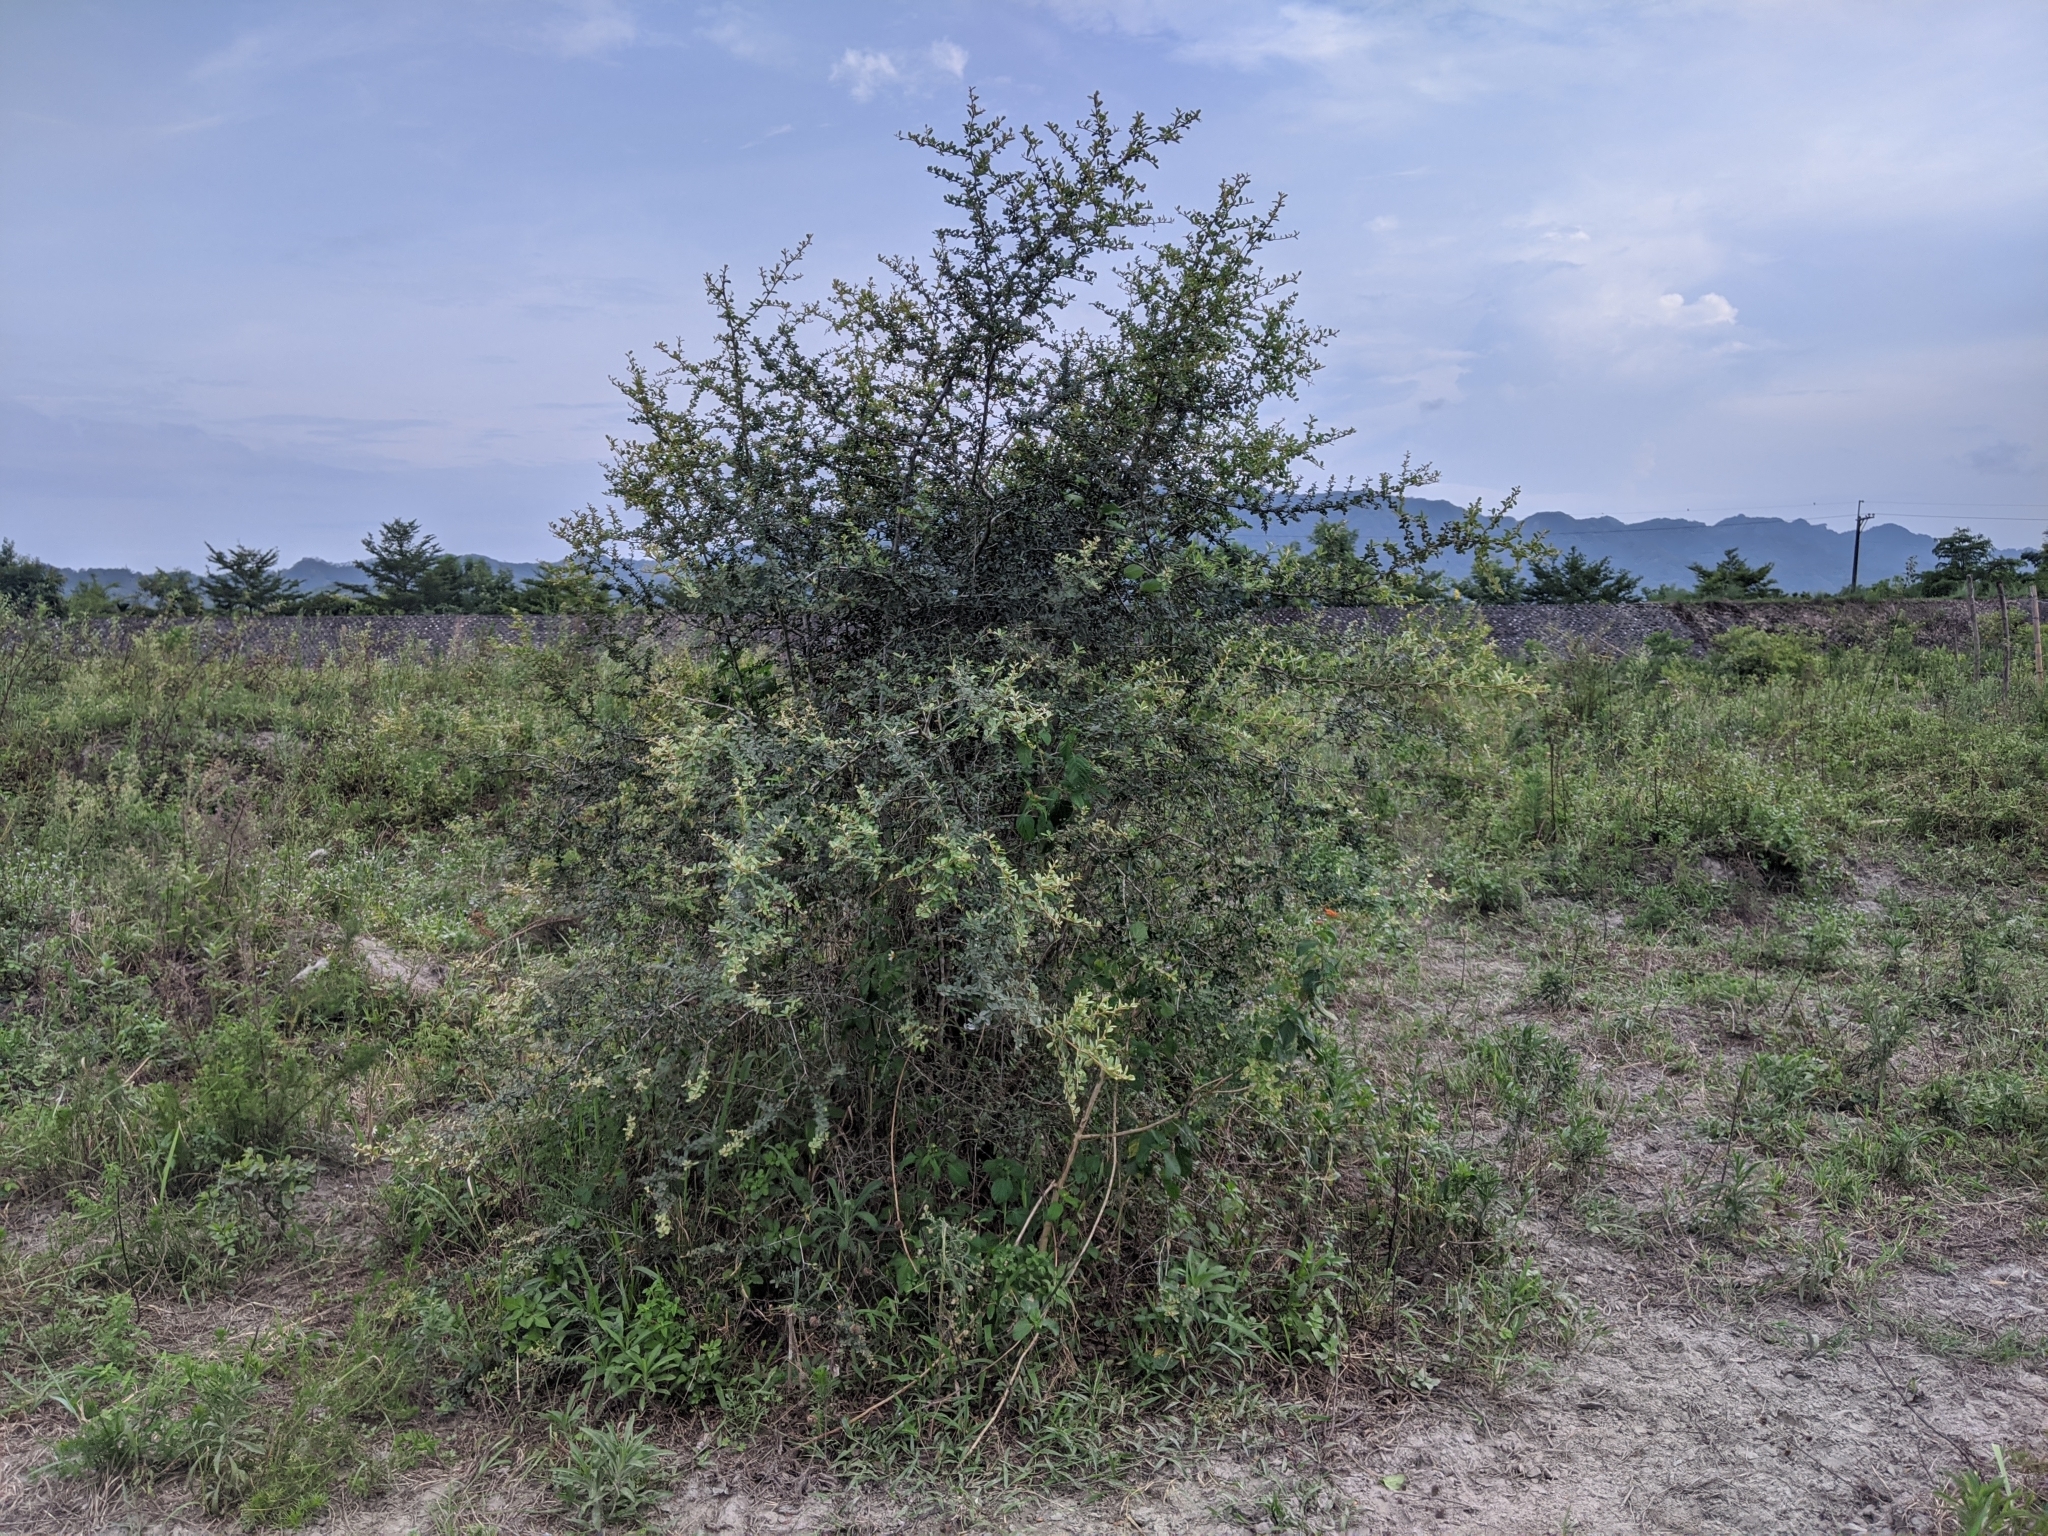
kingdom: Plantae
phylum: Tracheophyta
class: Magnoliopsida
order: Rosales
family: Rosaceae
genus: Pyracantha
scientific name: Pyracantha koidzumii
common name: Formosa firethorn
